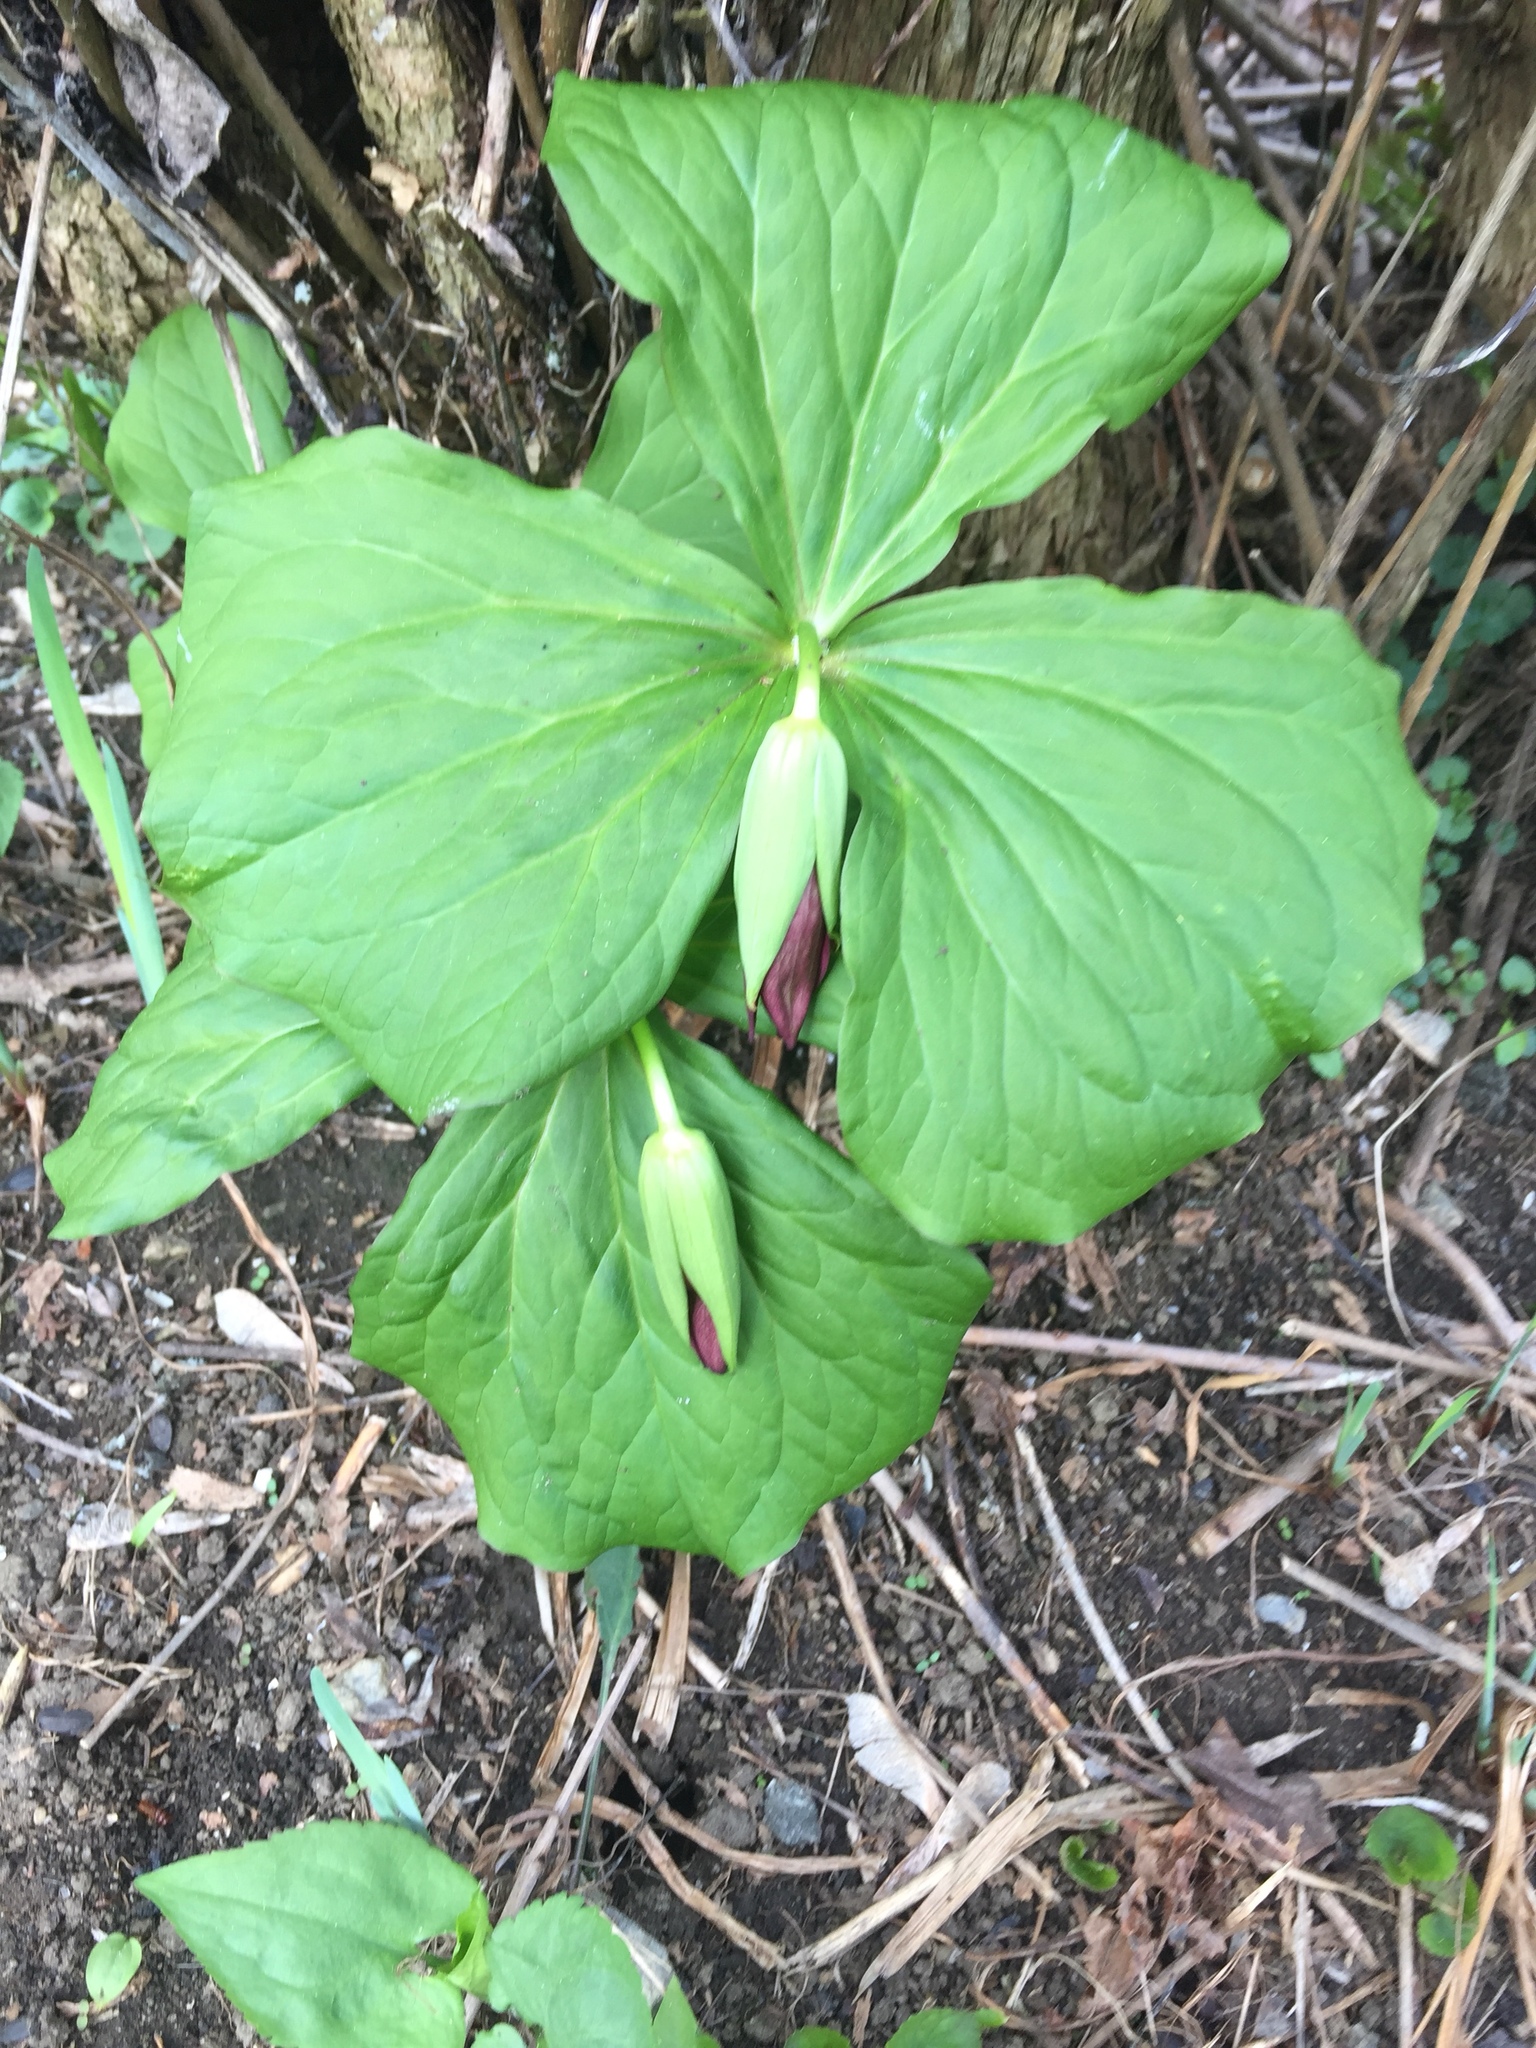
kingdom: Plantae
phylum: Tracheophyta
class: Liliopsida
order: Liliales
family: Melanthiaceae
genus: Trillium
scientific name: Trillium erectum
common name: Purple trillium
